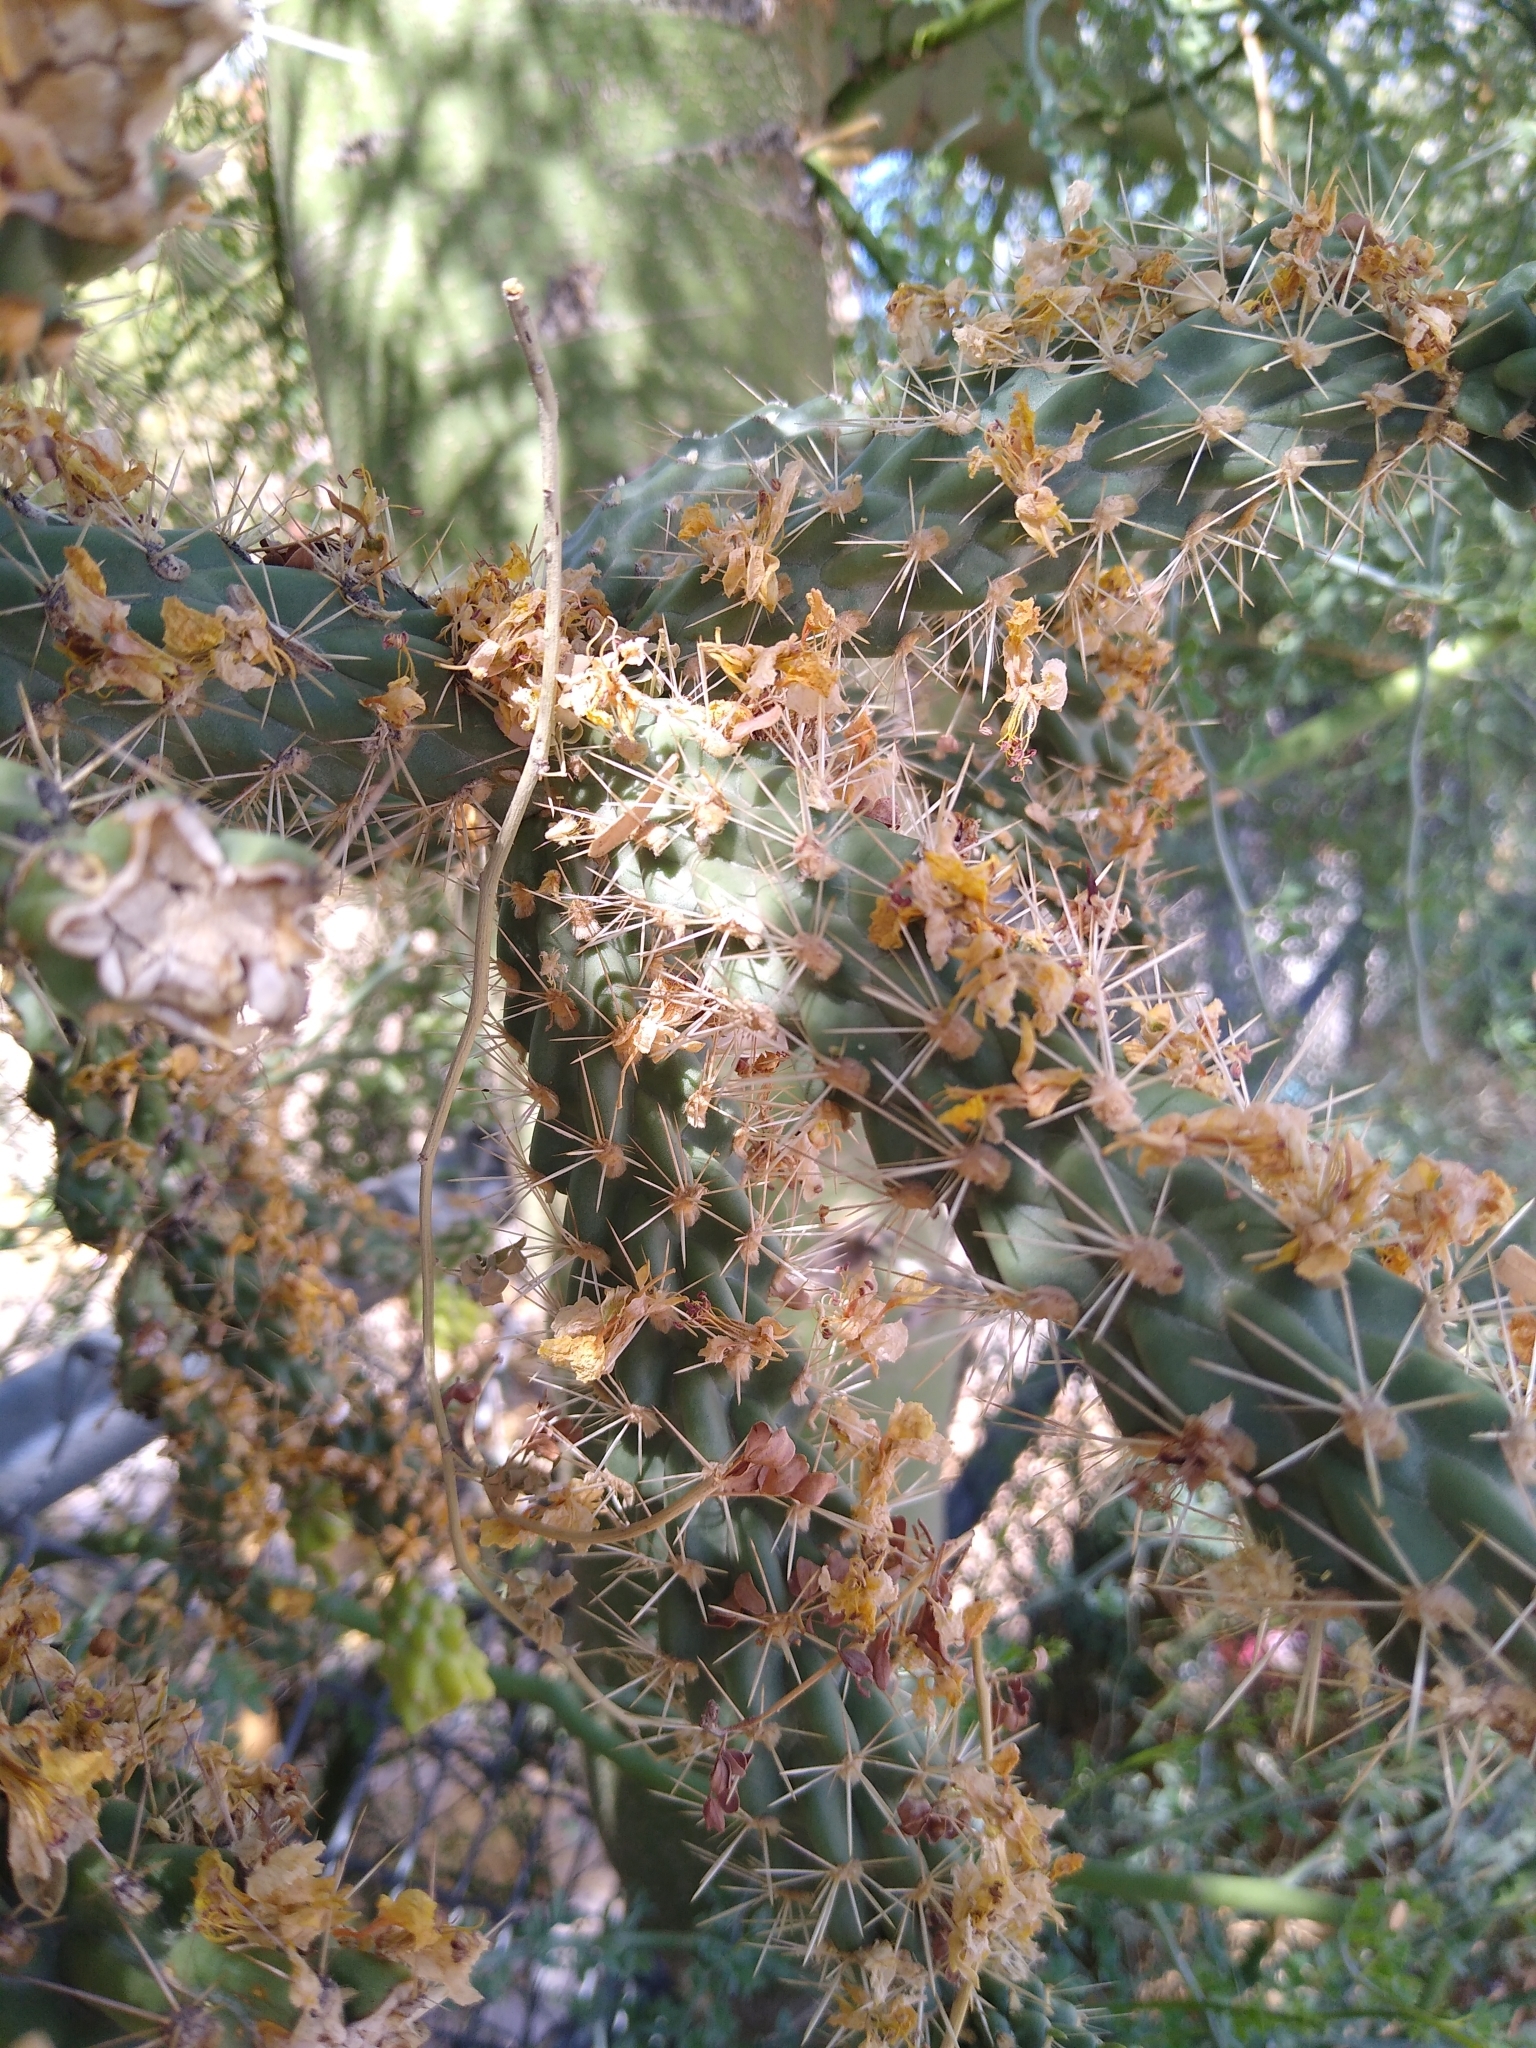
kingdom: Plantae
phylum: Tracheophyta
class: Magnoliopsida
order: Caryophyllales
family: Cactaceae
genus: Cylindropuntia
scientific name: Cylindropuntia imbricata
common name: Candelabrum cactus
